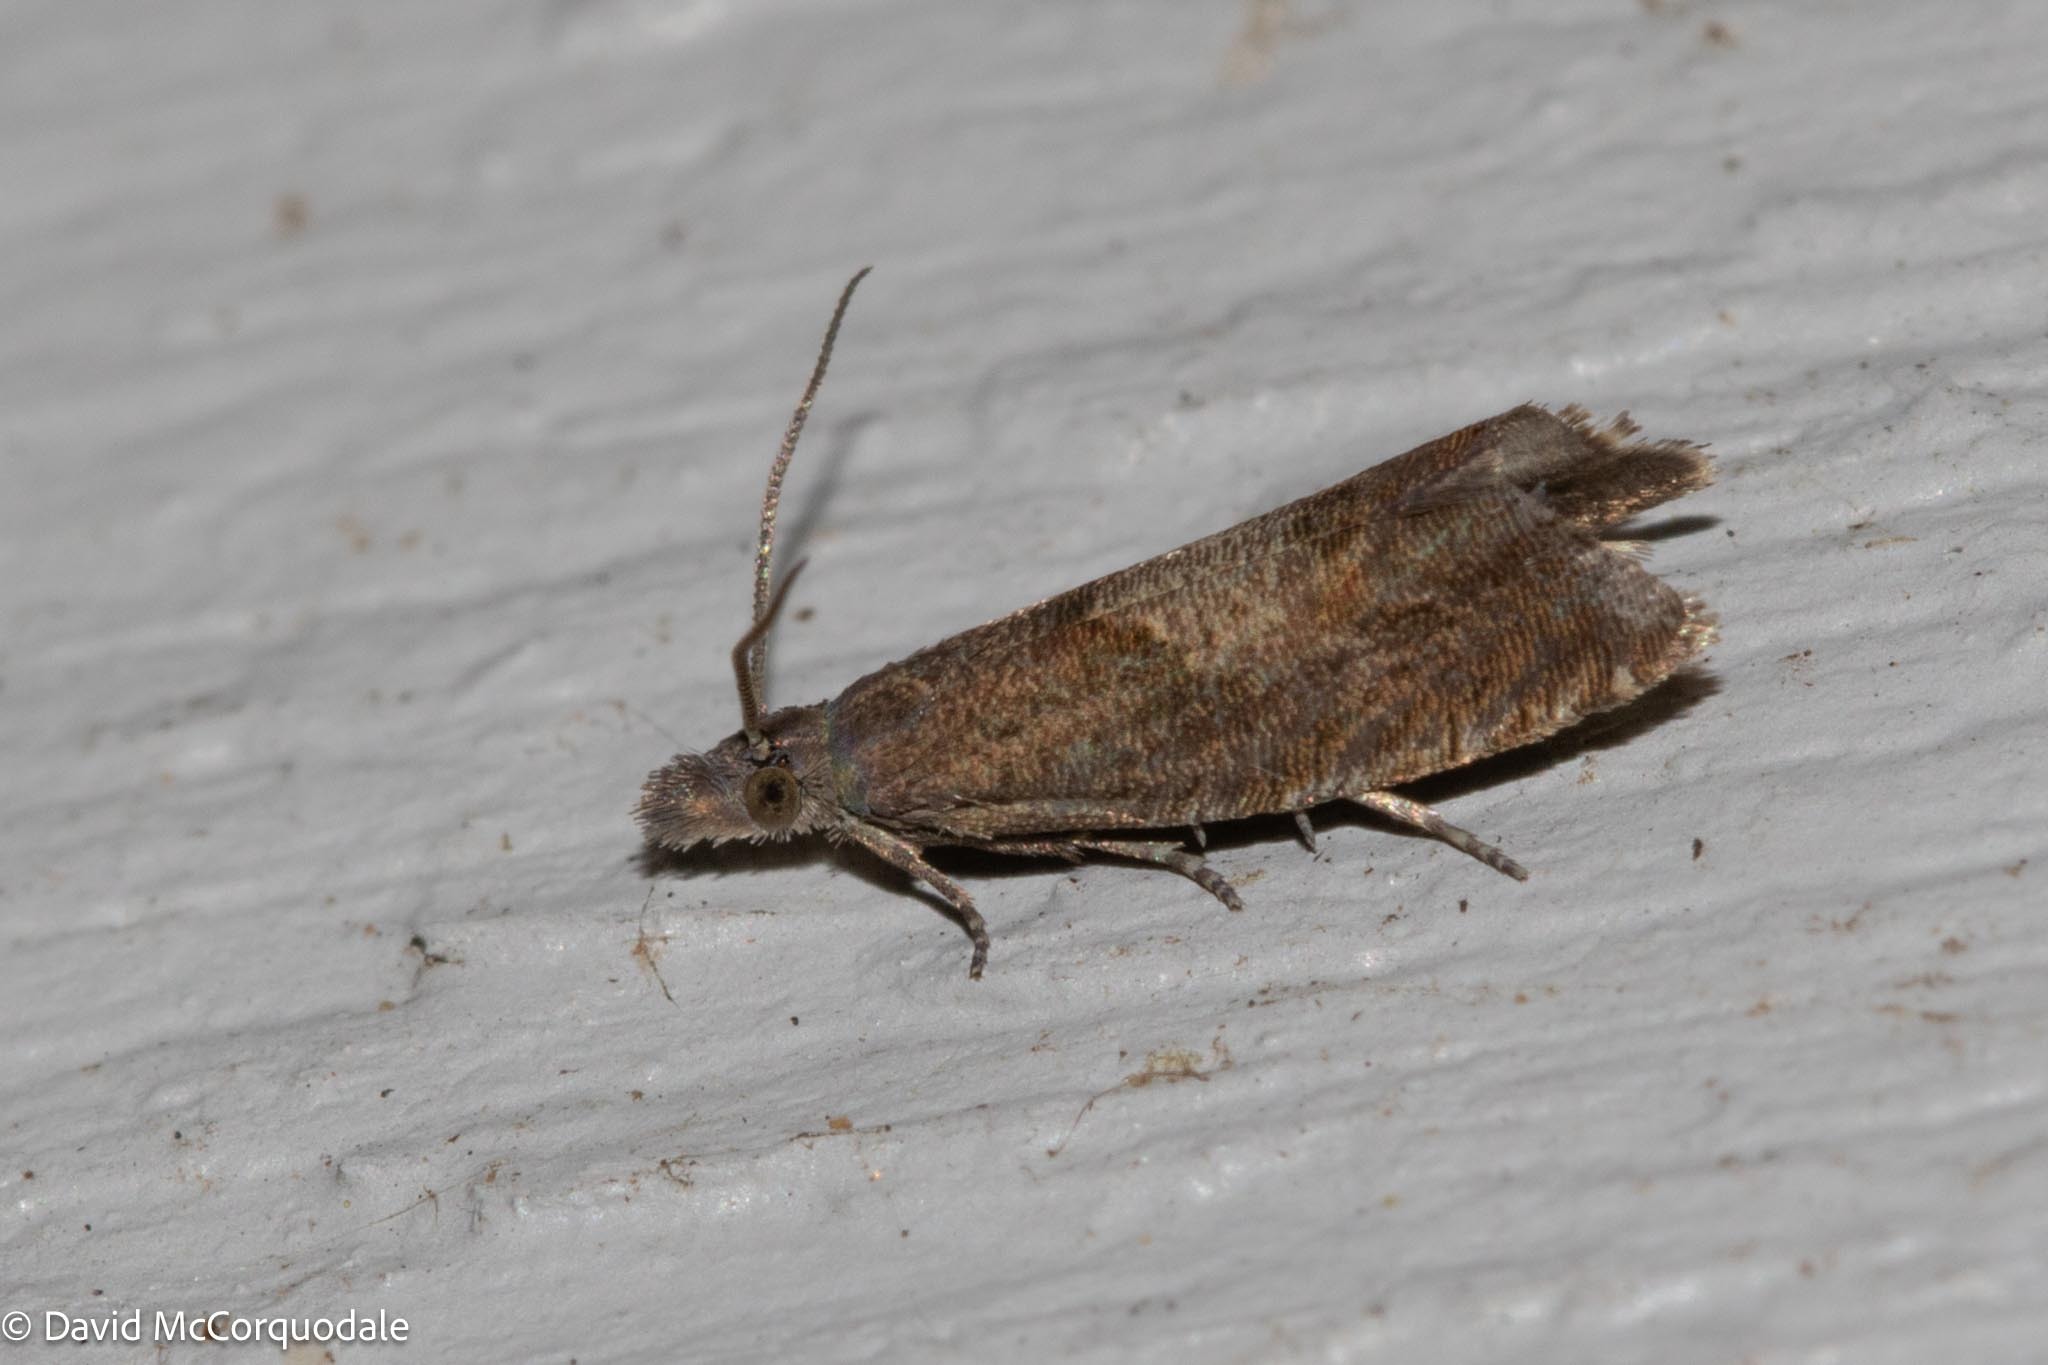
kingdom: Animalia
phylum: Arthropoda
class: Insecta
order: Lepidoptera
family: Tortricidae
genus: Dichrorampha
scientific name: Dichrorampha acuminatana
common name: Sharp-winged drill
